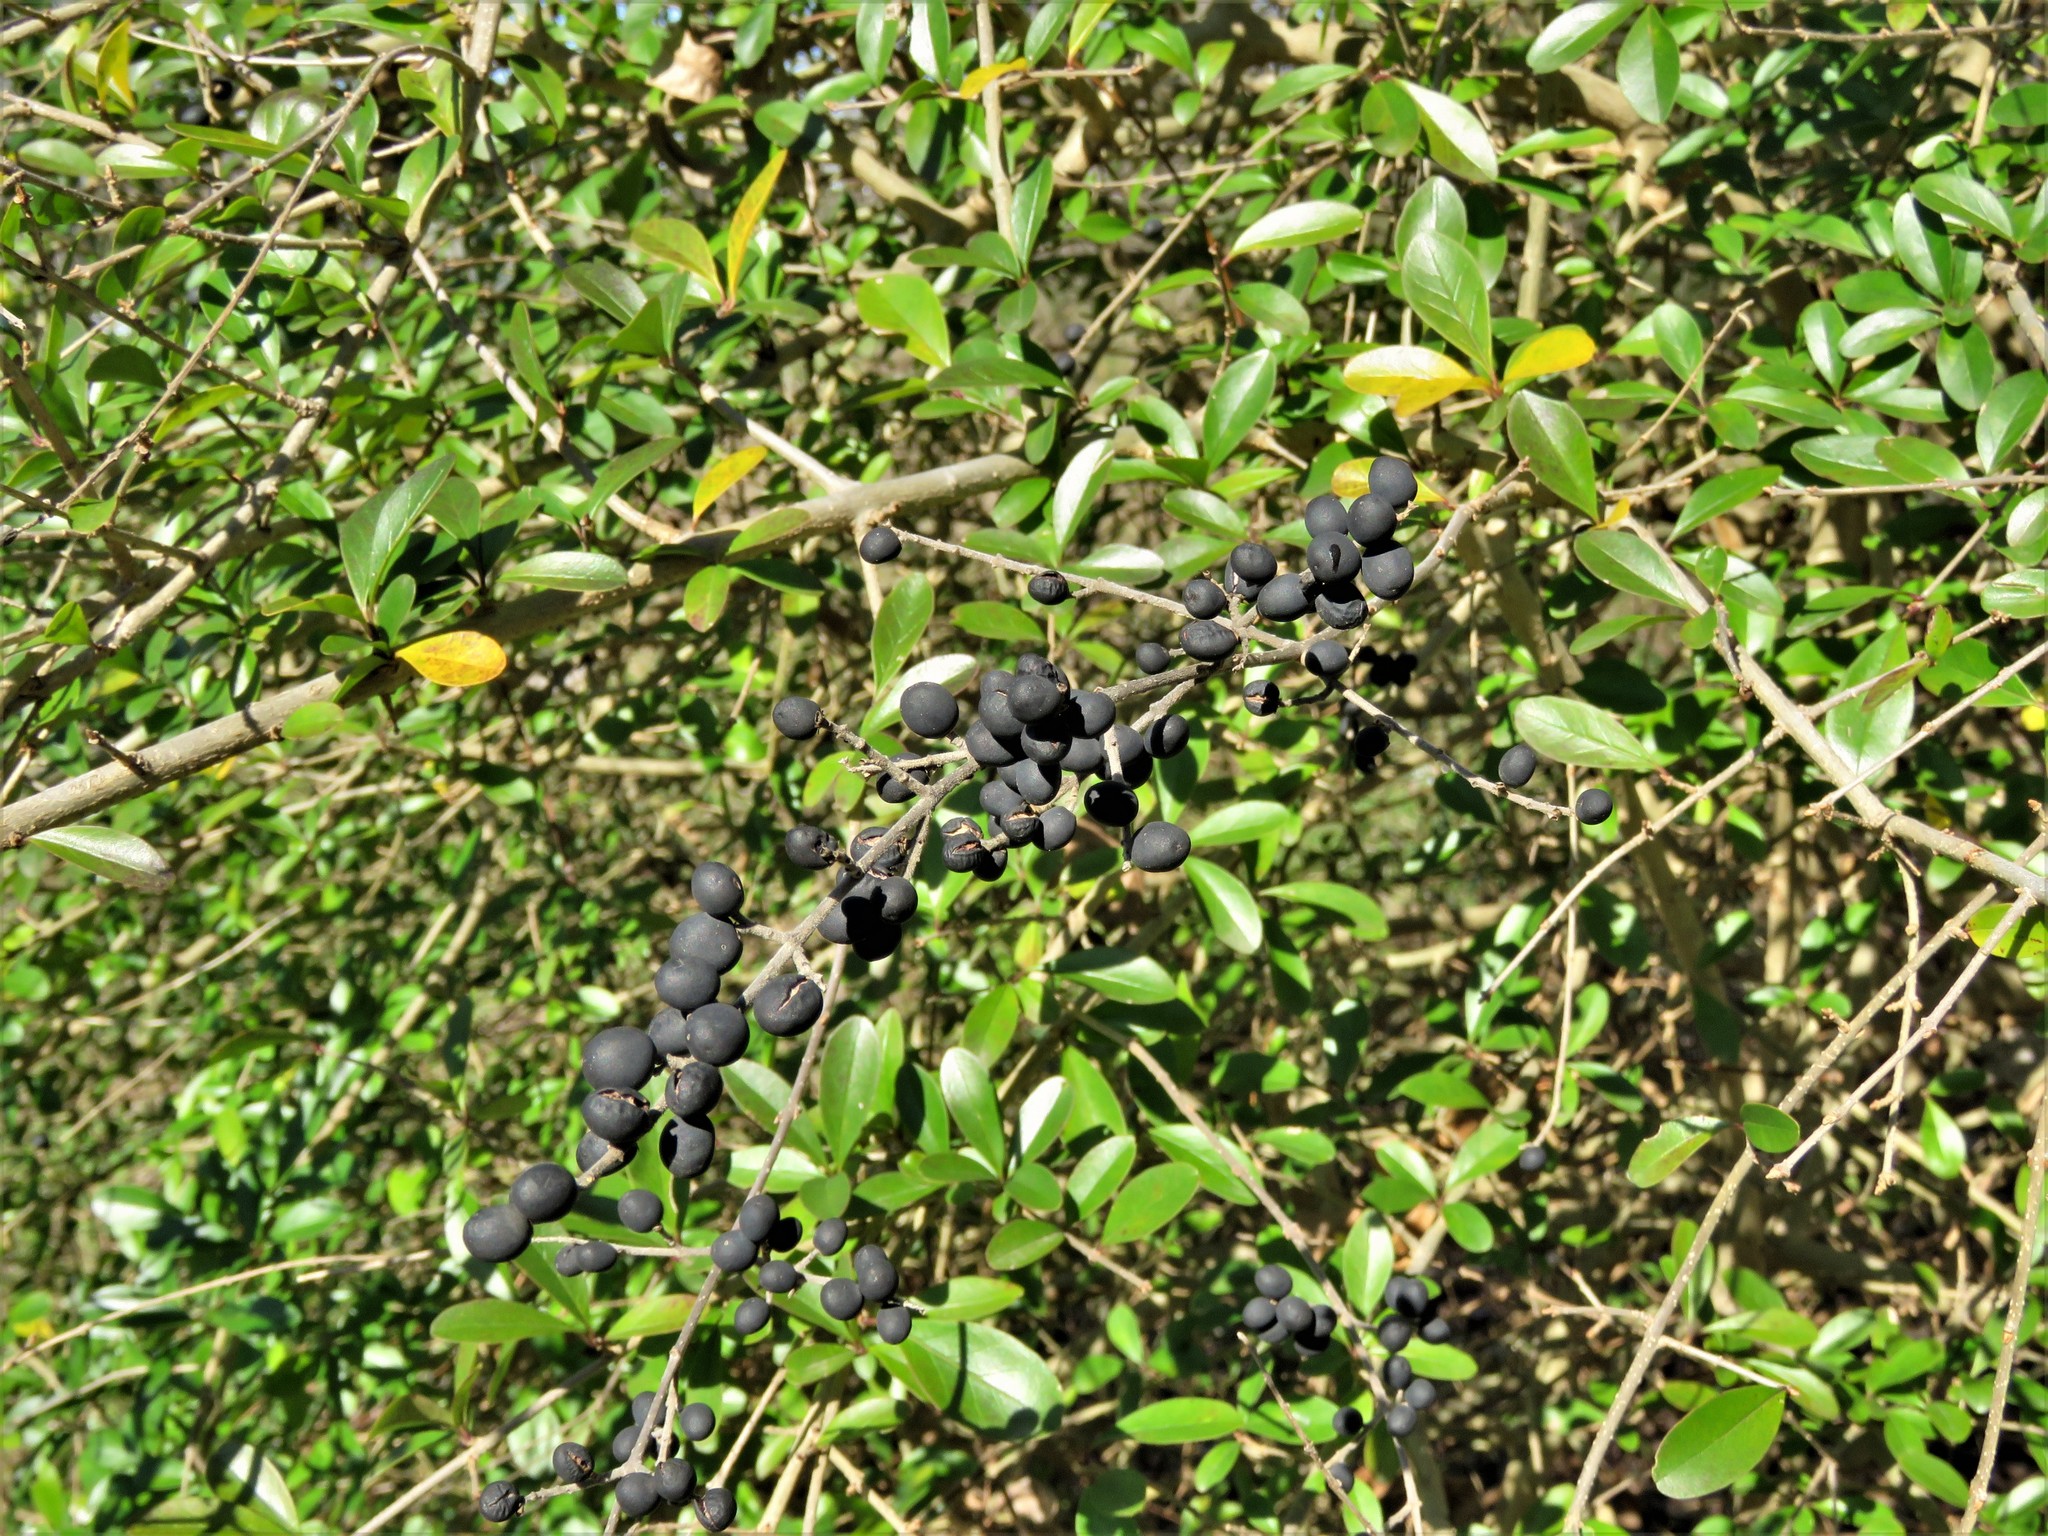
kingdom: Plantae
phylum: Tracheophyta
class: Magnoliopsida
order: Lamiales
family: Oleaceae
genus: Ligustrum
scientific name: Ligustrum quihoui
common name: Waxyleaf privet
